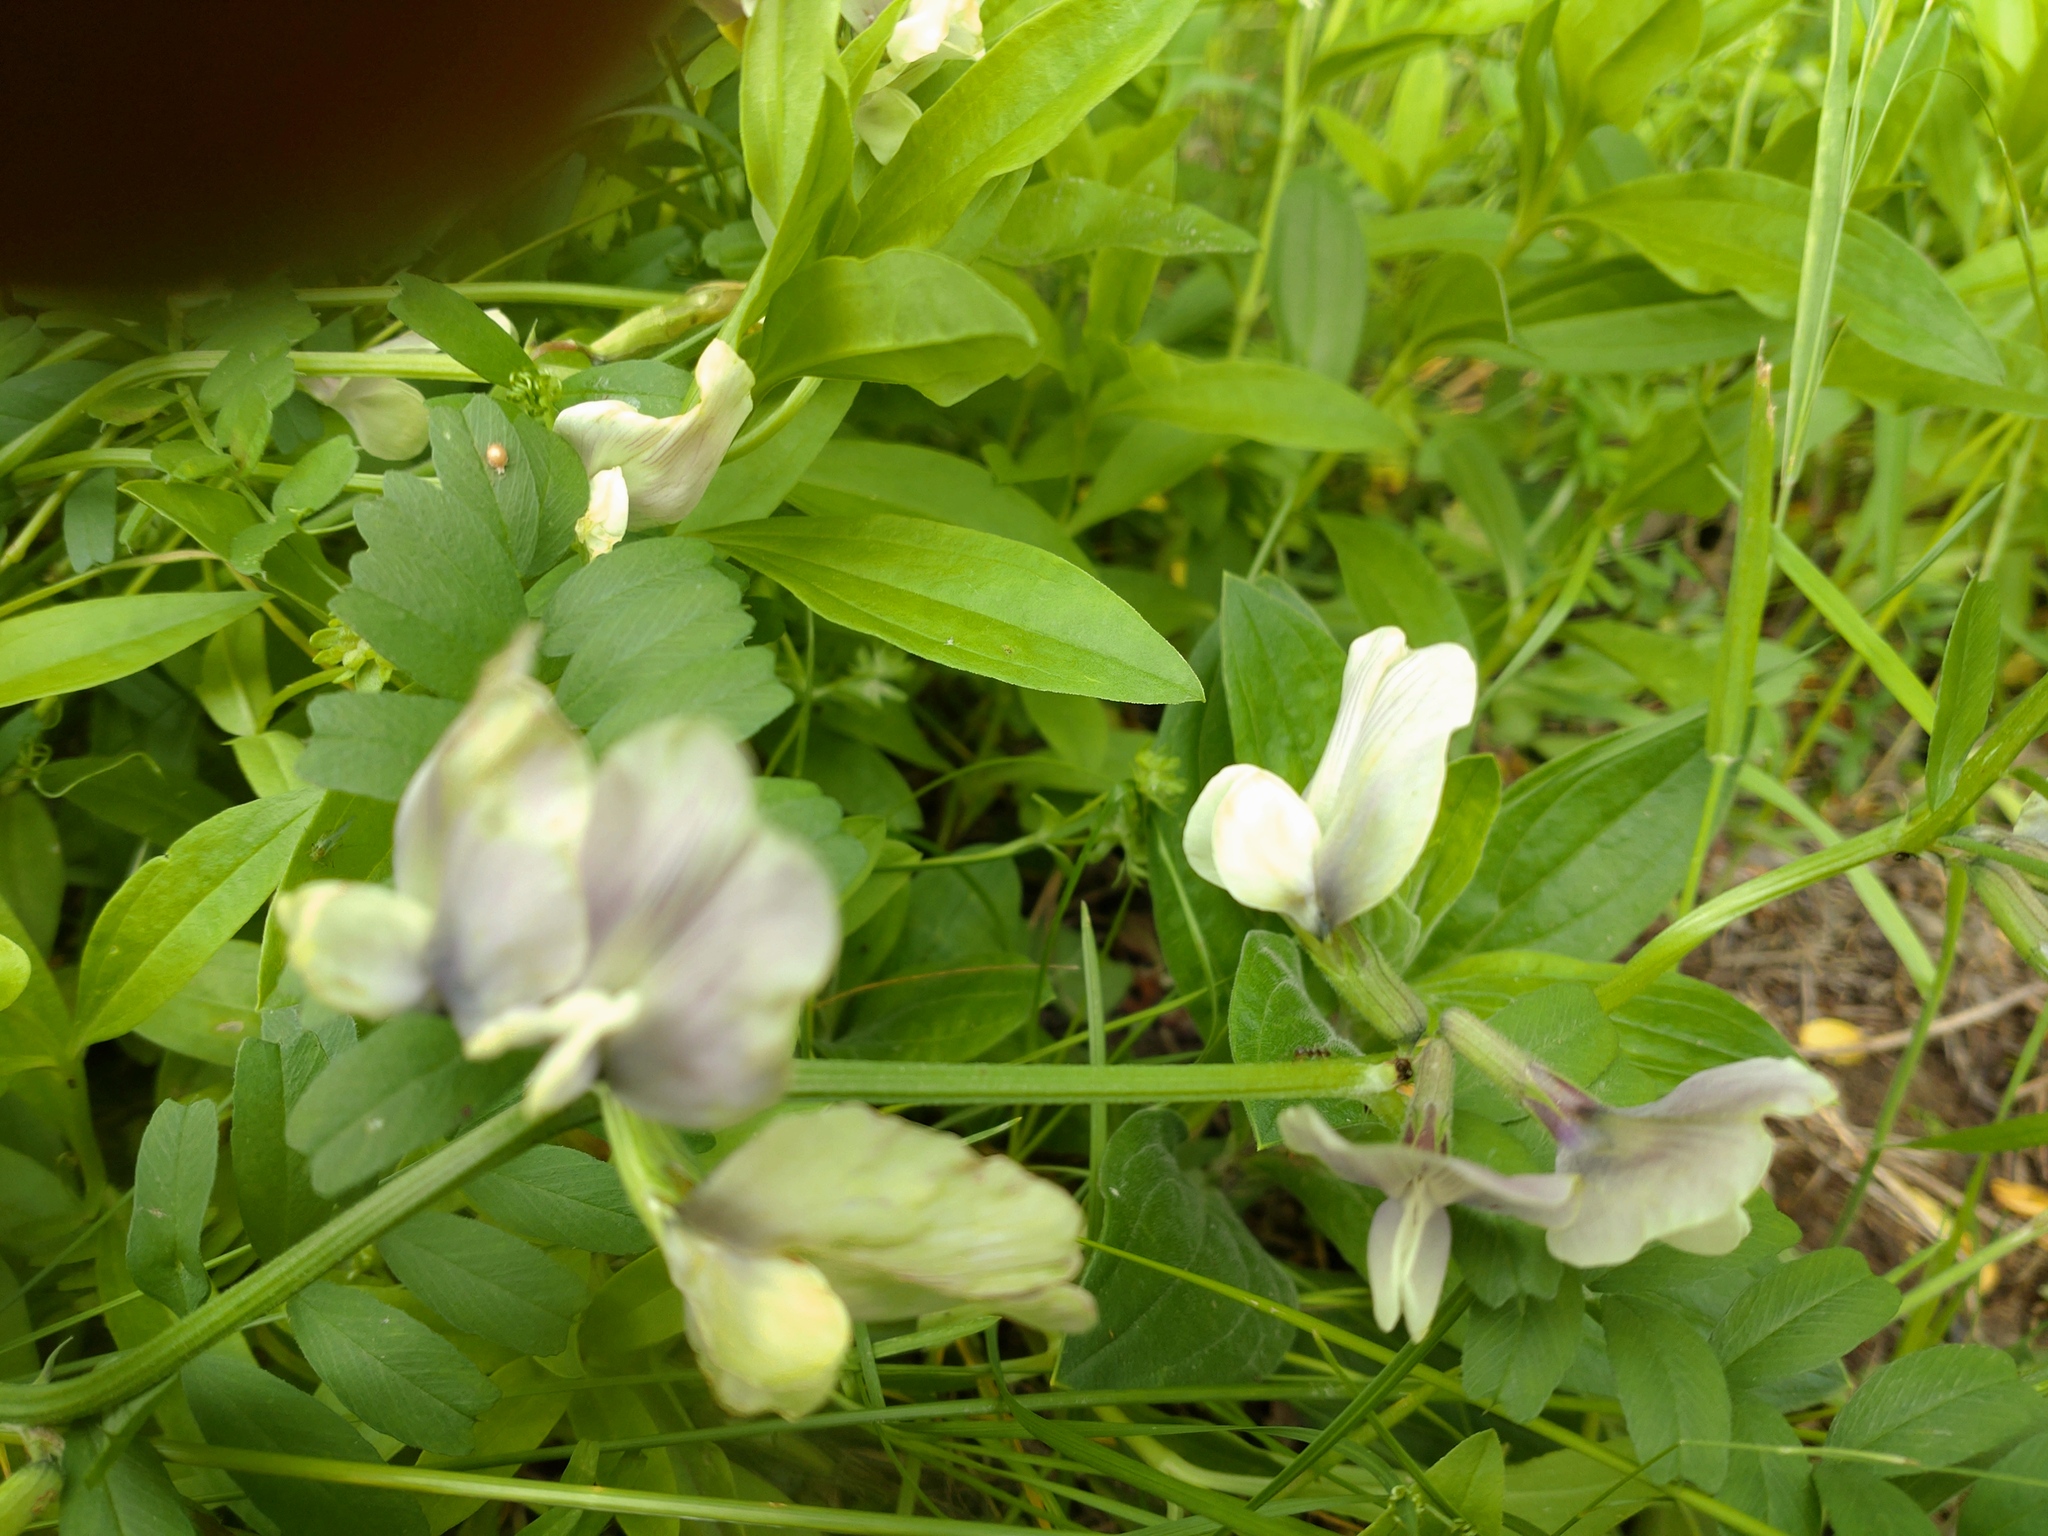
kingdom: Plantae
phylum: Tracheophyta
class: Magnoliopsida
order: Fabales
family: Fabaceae
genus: Vicia
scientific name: Vicia grandiflora
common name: Large yellow vetch
